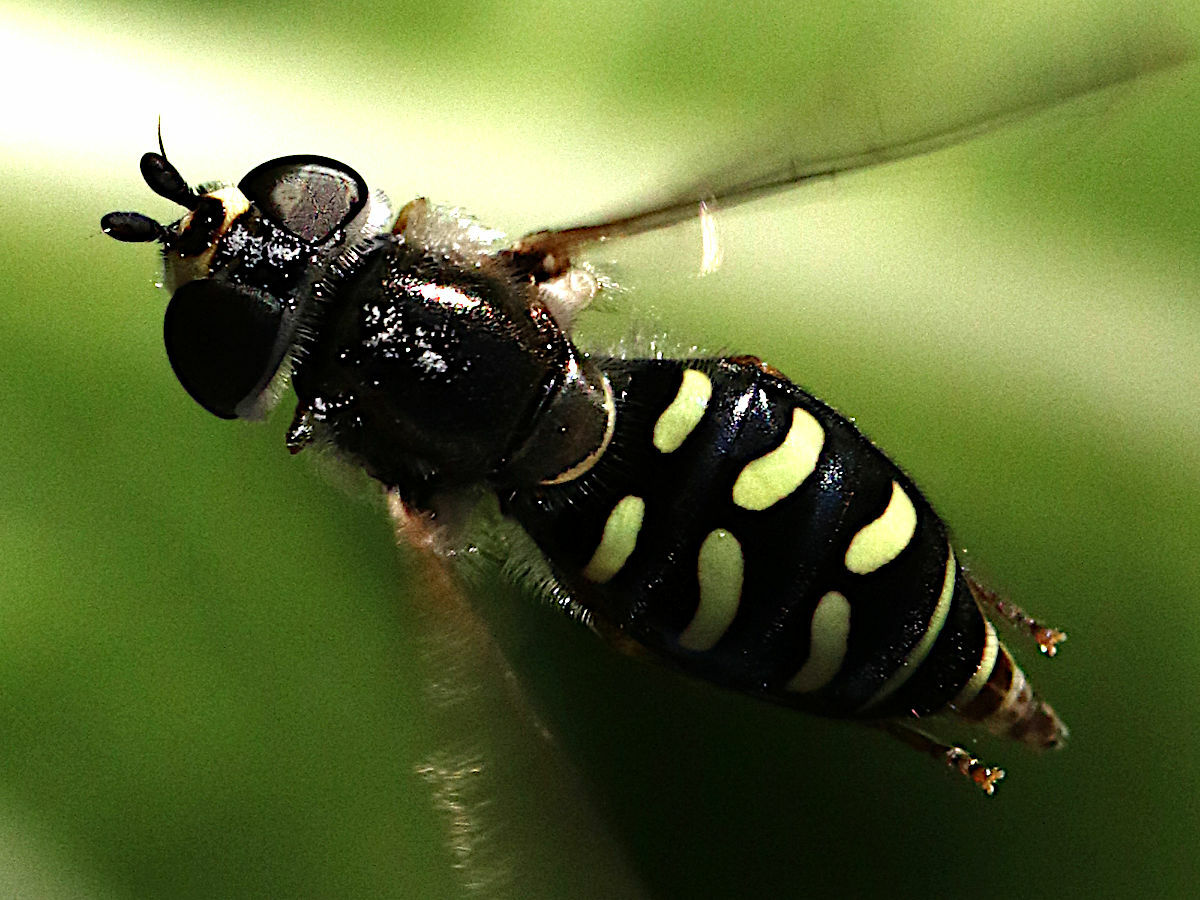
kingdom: Animalia
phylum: Arthropoda
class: Insecta
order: Diptera
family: Syrphidae
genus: Eupeodes
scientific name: Eupeodes volucris
